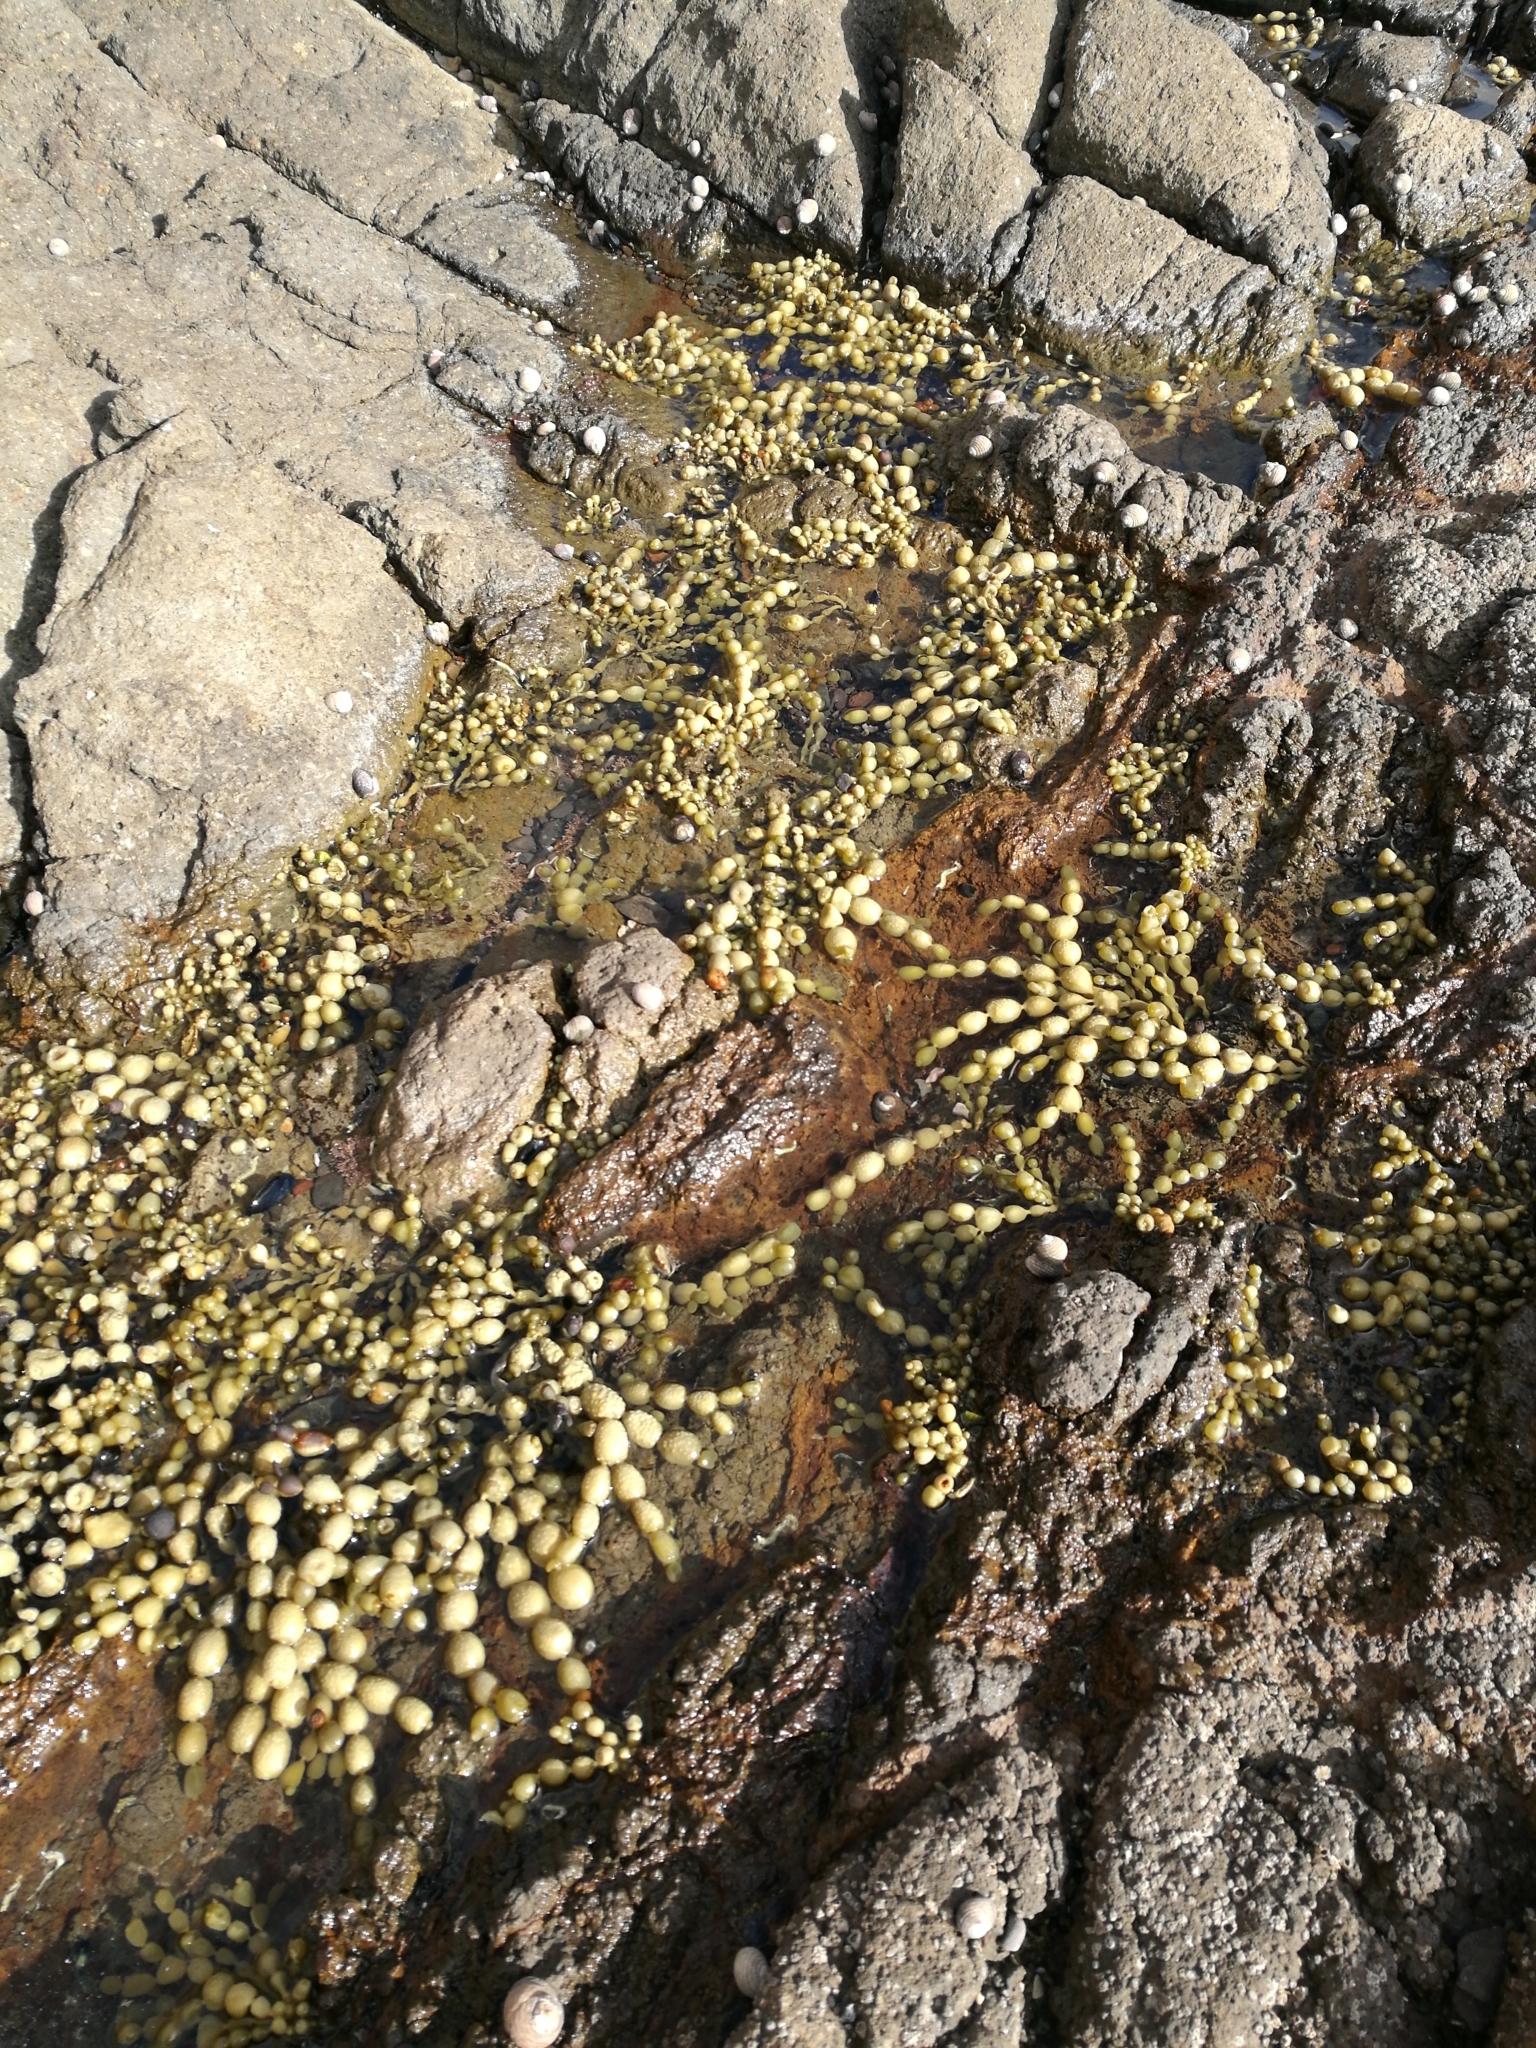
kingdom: Chromista
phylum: Ochrophyta
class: Phaeophyceae
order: Fucales
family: Hormosiraceae
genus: Hormosira
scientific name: Hormosira banksii
